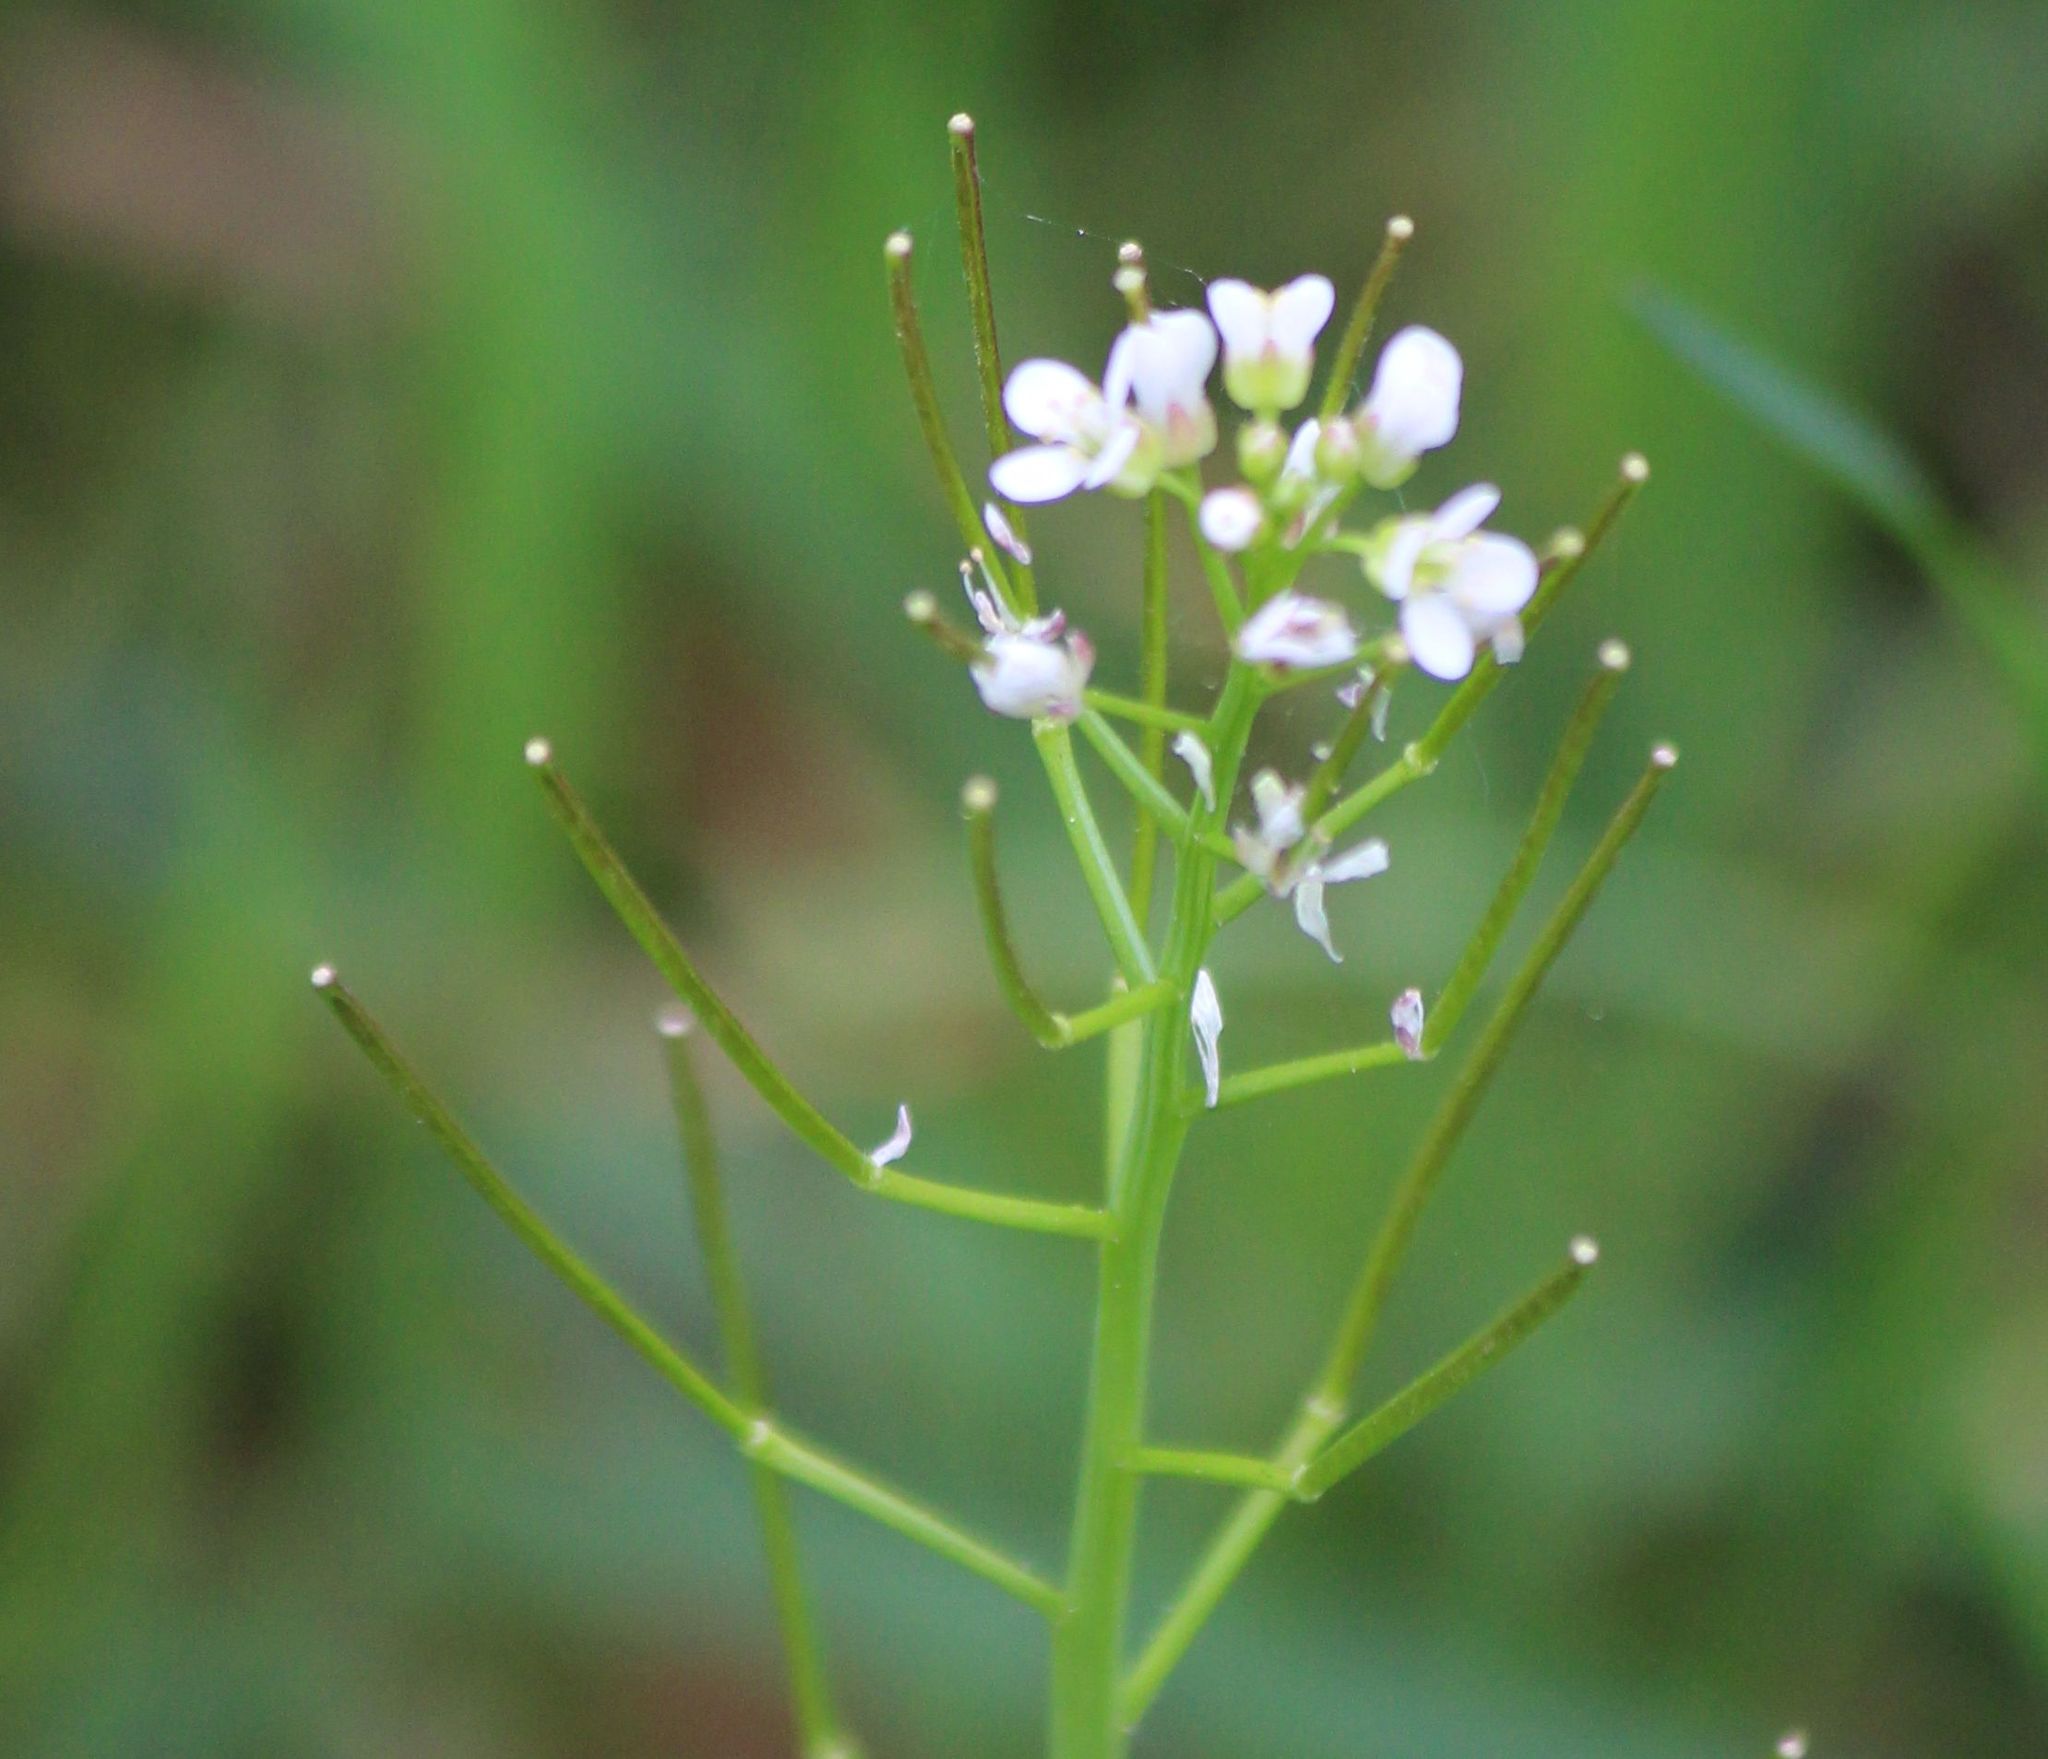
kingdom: Plantae
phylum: Tracheophyta
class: Magnoliopsida
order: Brassicales
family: Brassicaceae
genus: Cardamine
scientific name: Cardamine flexuosa
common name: Woodland bittercress
